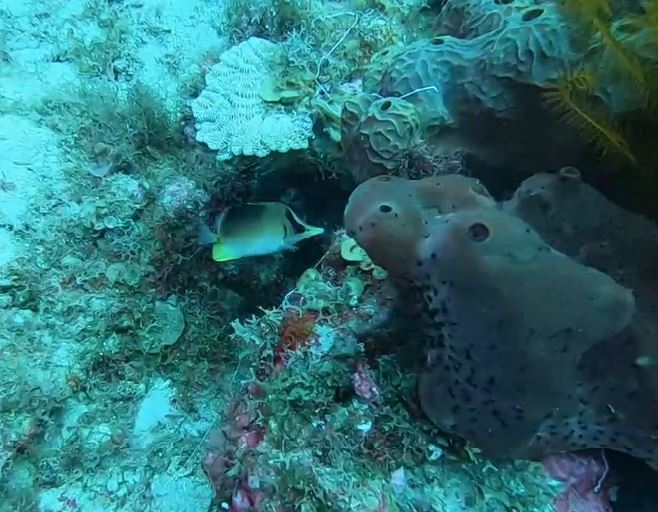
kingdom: Animalia
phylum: Chordata
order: Perciformes
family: Chaetodontidae
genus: Prognathodes
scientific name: Prognathodes aculeatus
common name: Longsnout butterflyfish
